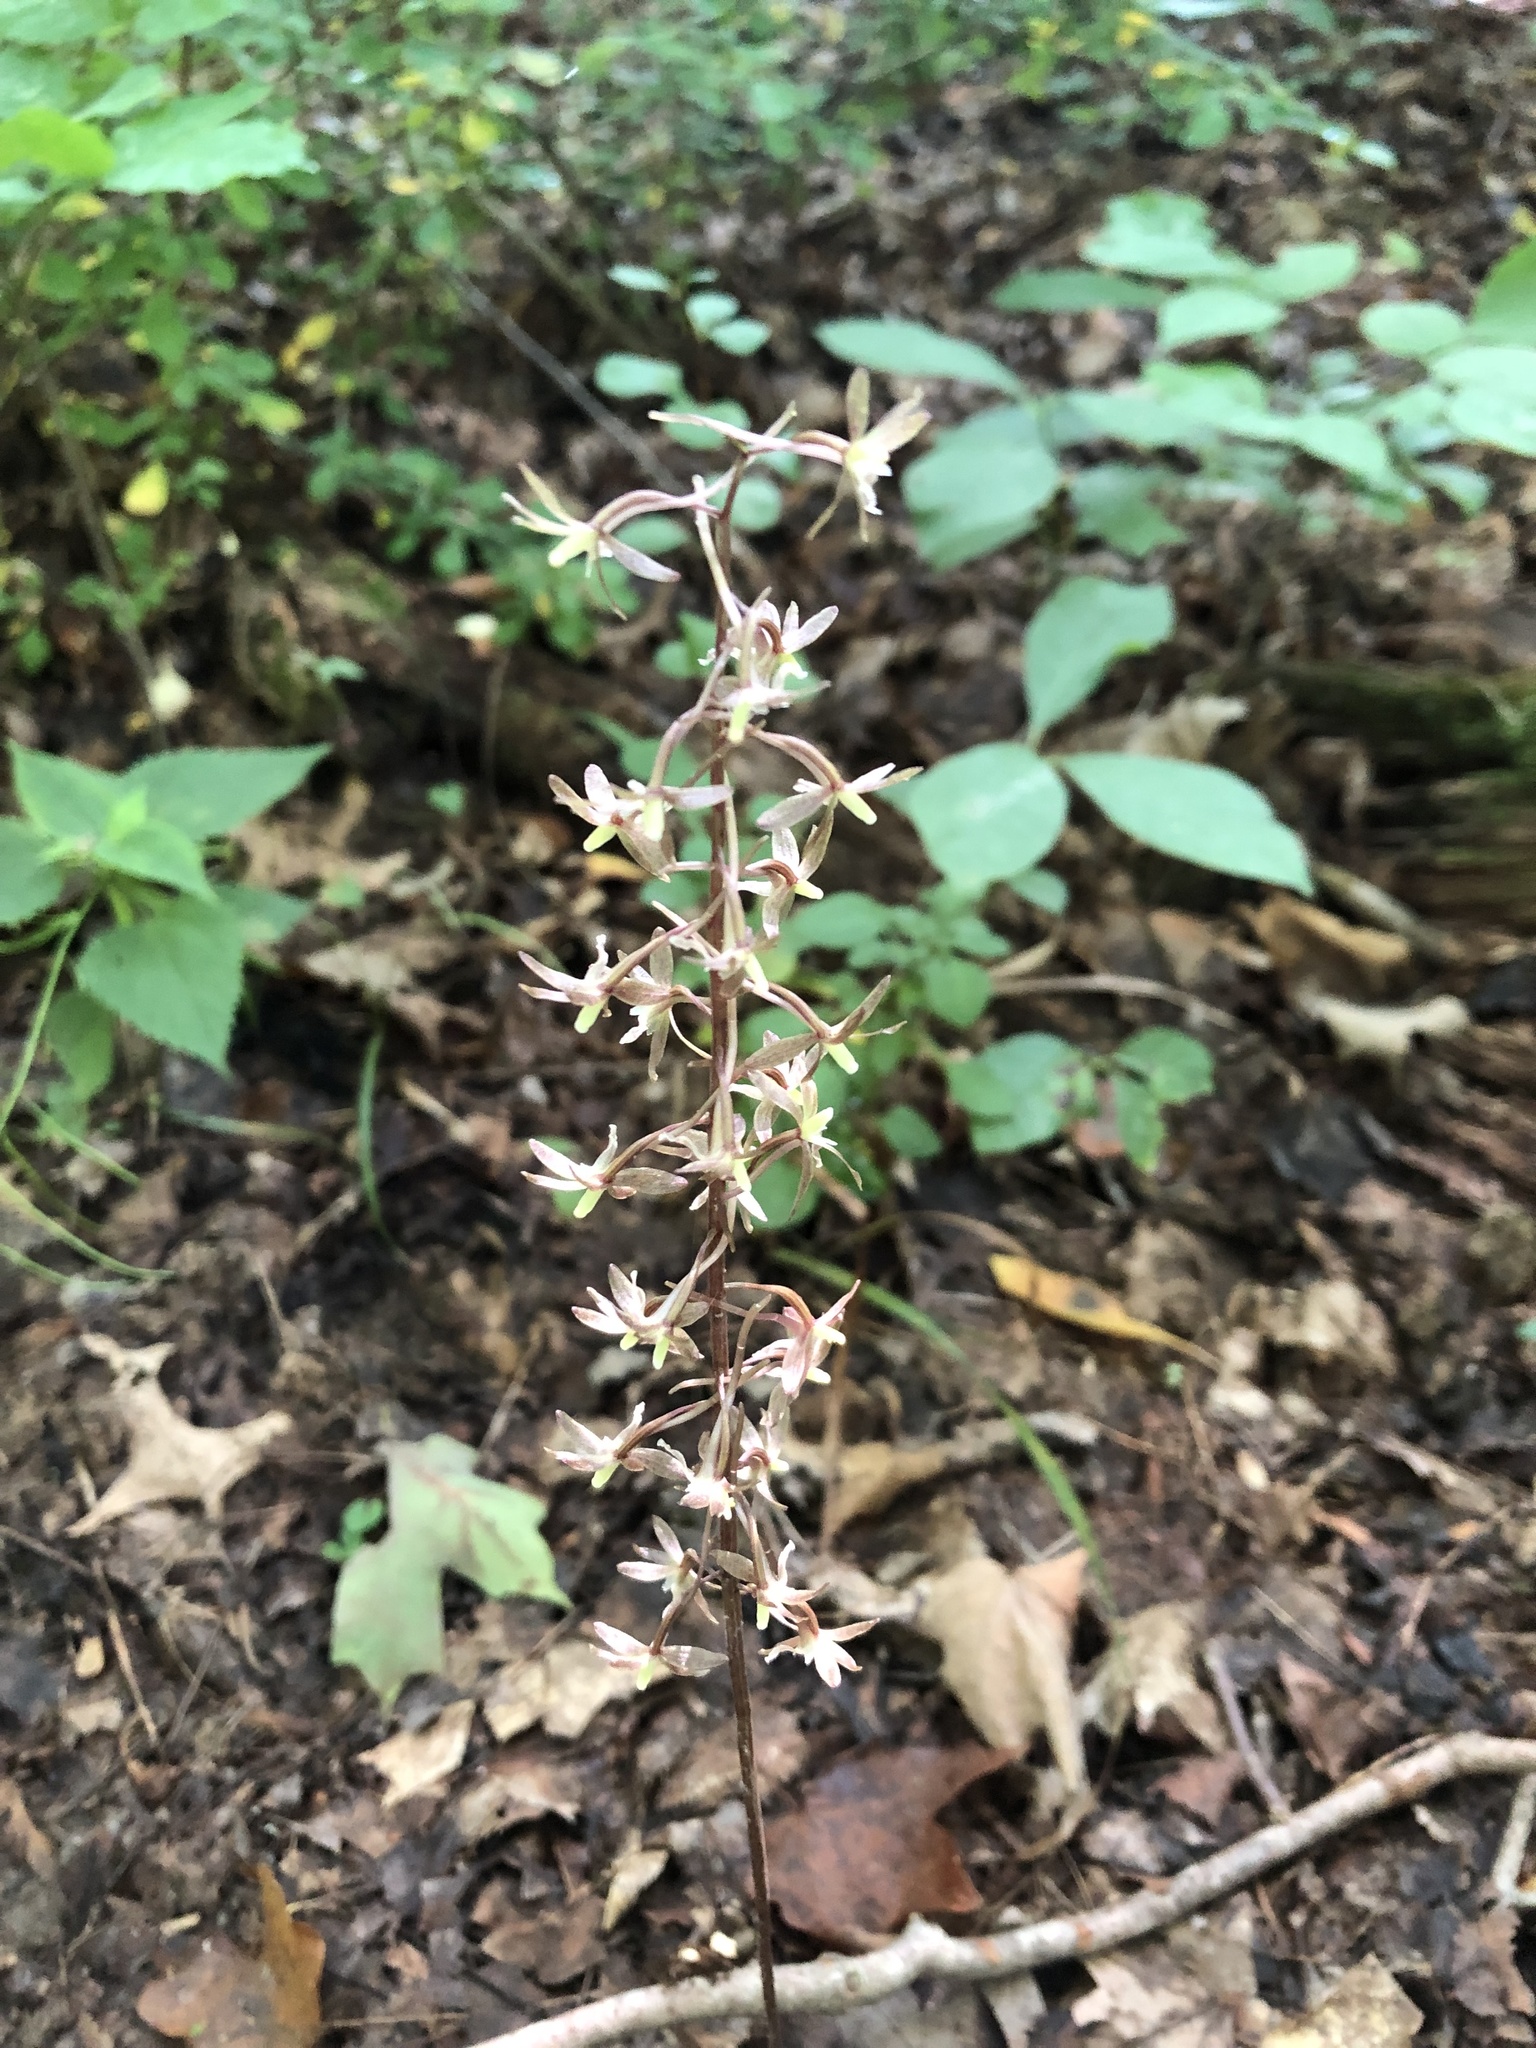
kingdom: Plantae
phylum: Tracheophyta
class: Liliopsida
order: Asparagales
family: Orchidaceae
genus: Tipularia
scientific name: Tipularia discolor
